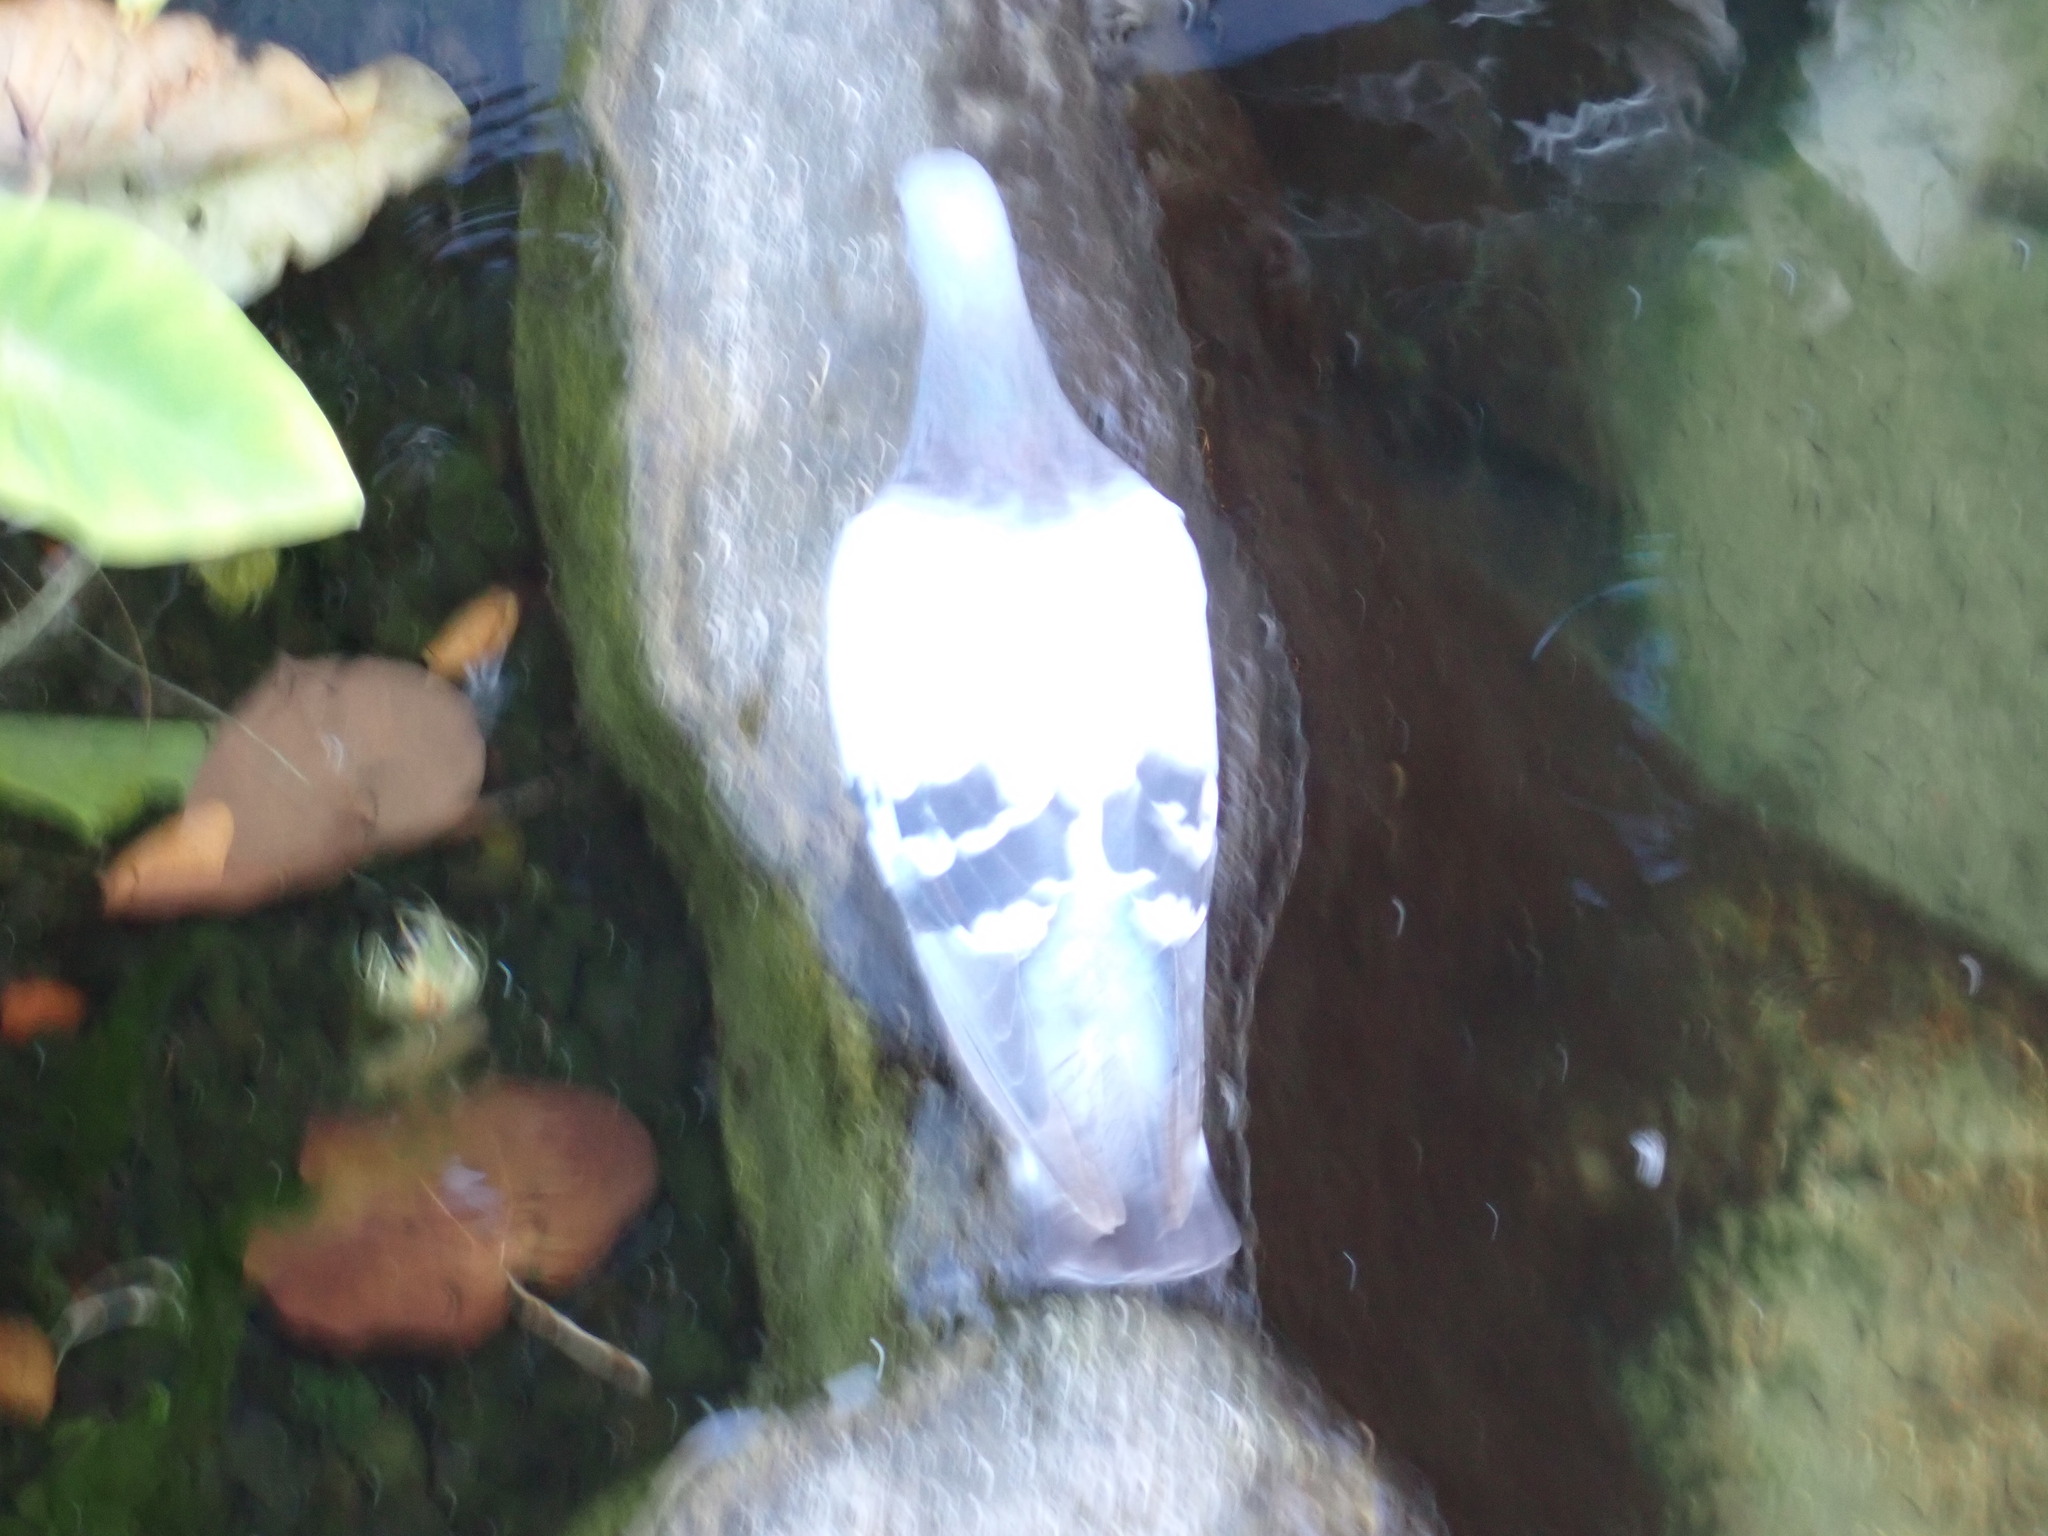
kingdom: Animalia
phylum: Chordata
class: Aves
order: Columbiformes
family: Columbidae
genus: Columba
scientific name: Columba livia
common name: Rock pigeon
